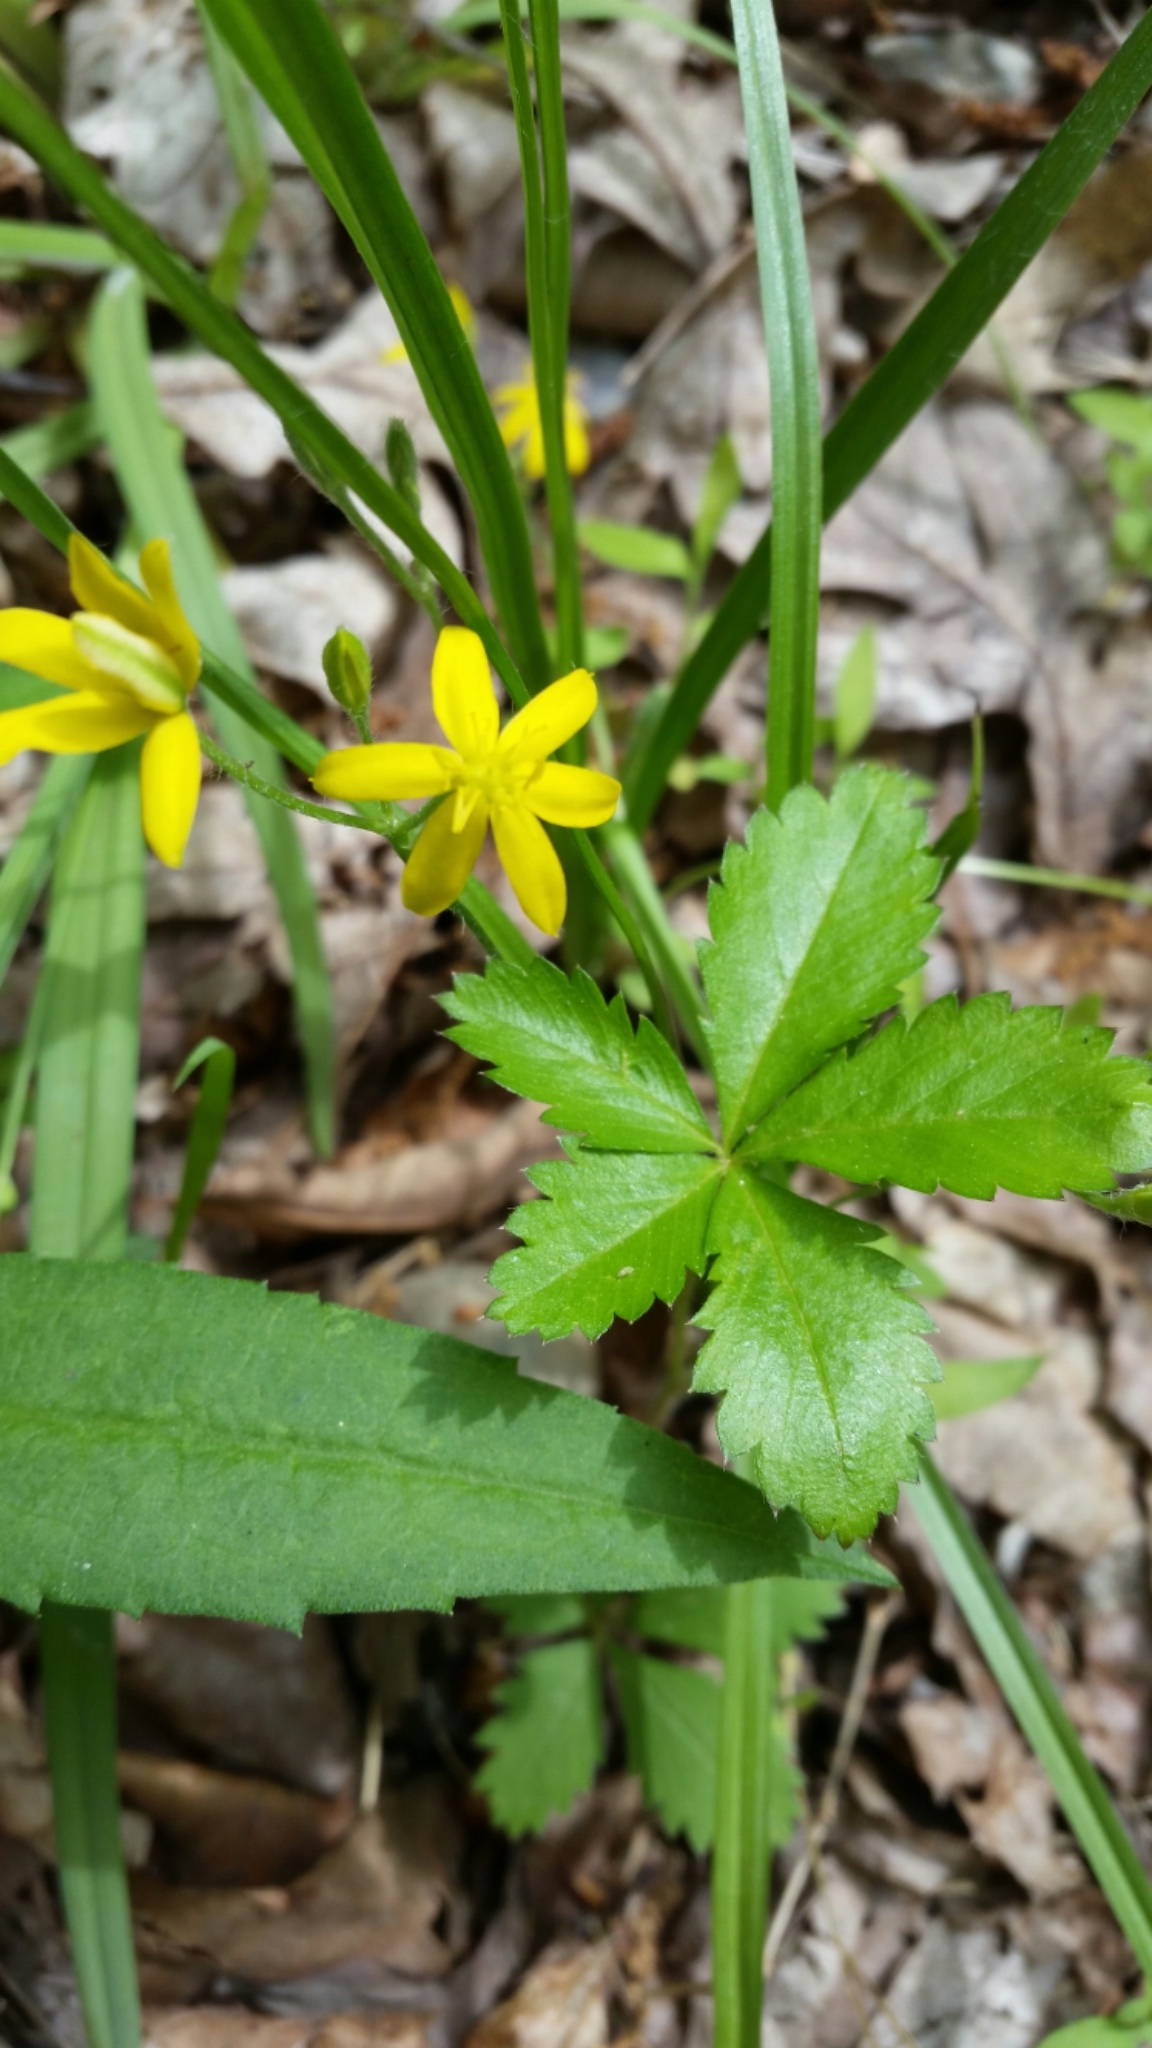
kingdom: Plantae
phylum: Tracheophyta
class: Liliopsida
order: Asparagales
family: Hypoxidaceae
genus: Hypoxis
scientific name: Hypoxis hirsuta
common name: Common goldstar
